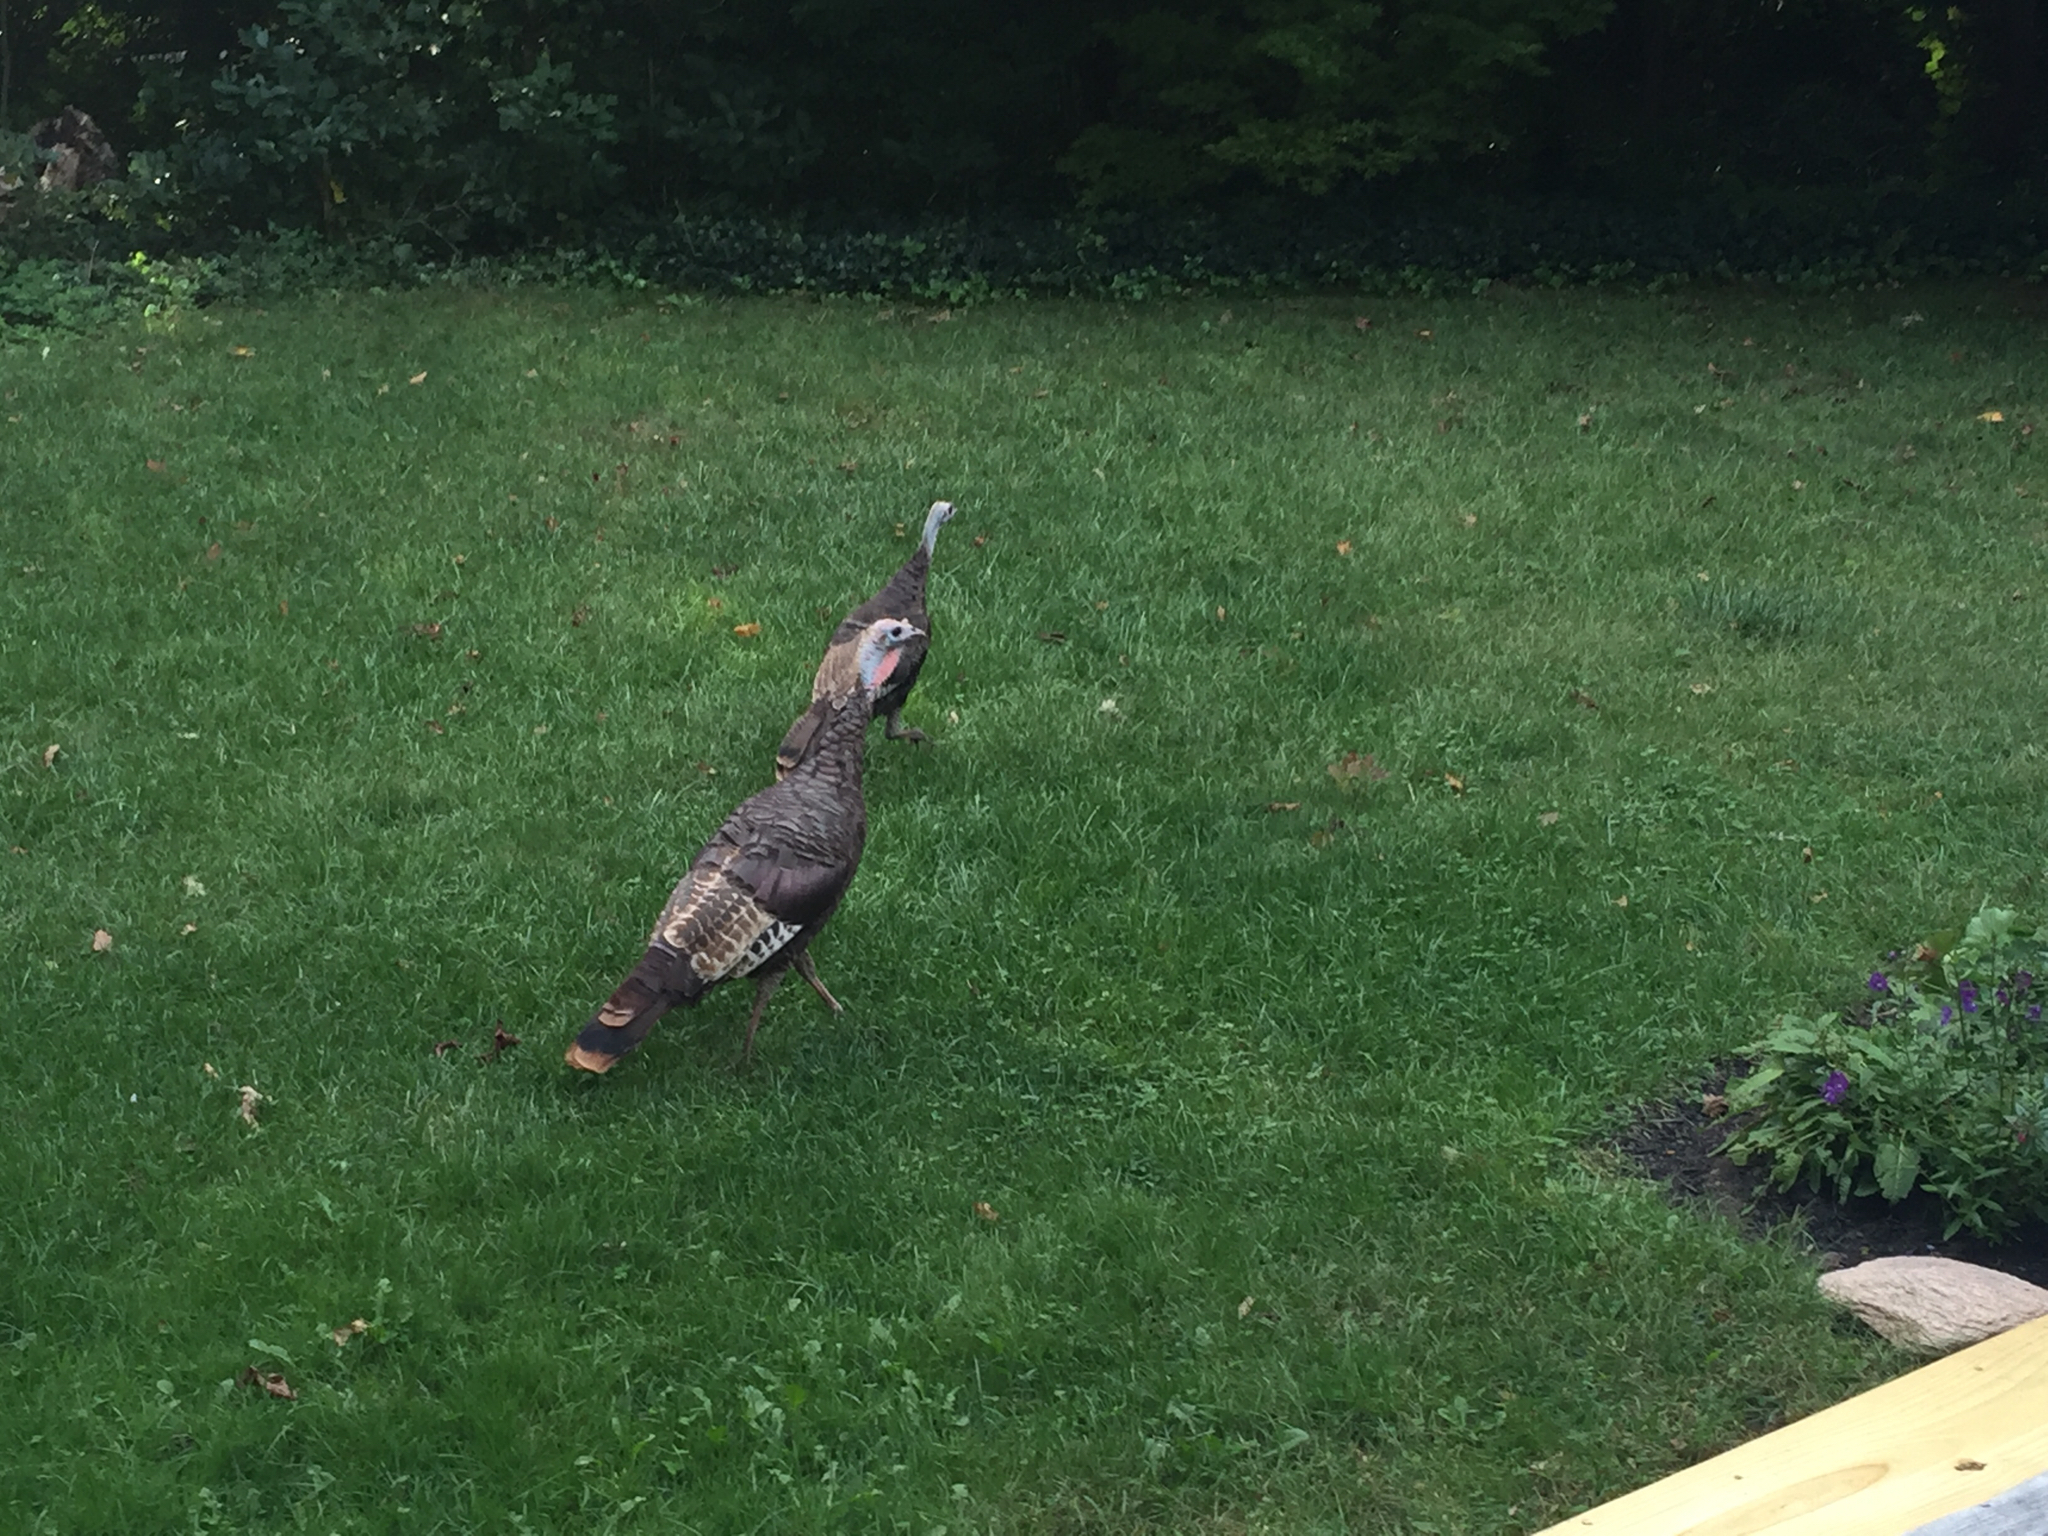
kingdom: Animalia
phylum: Chordata
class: Aves
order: Galliformes
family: Phasianidae
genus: Meleagris
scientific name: Meleagris gallopavo
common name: Wild turkey
